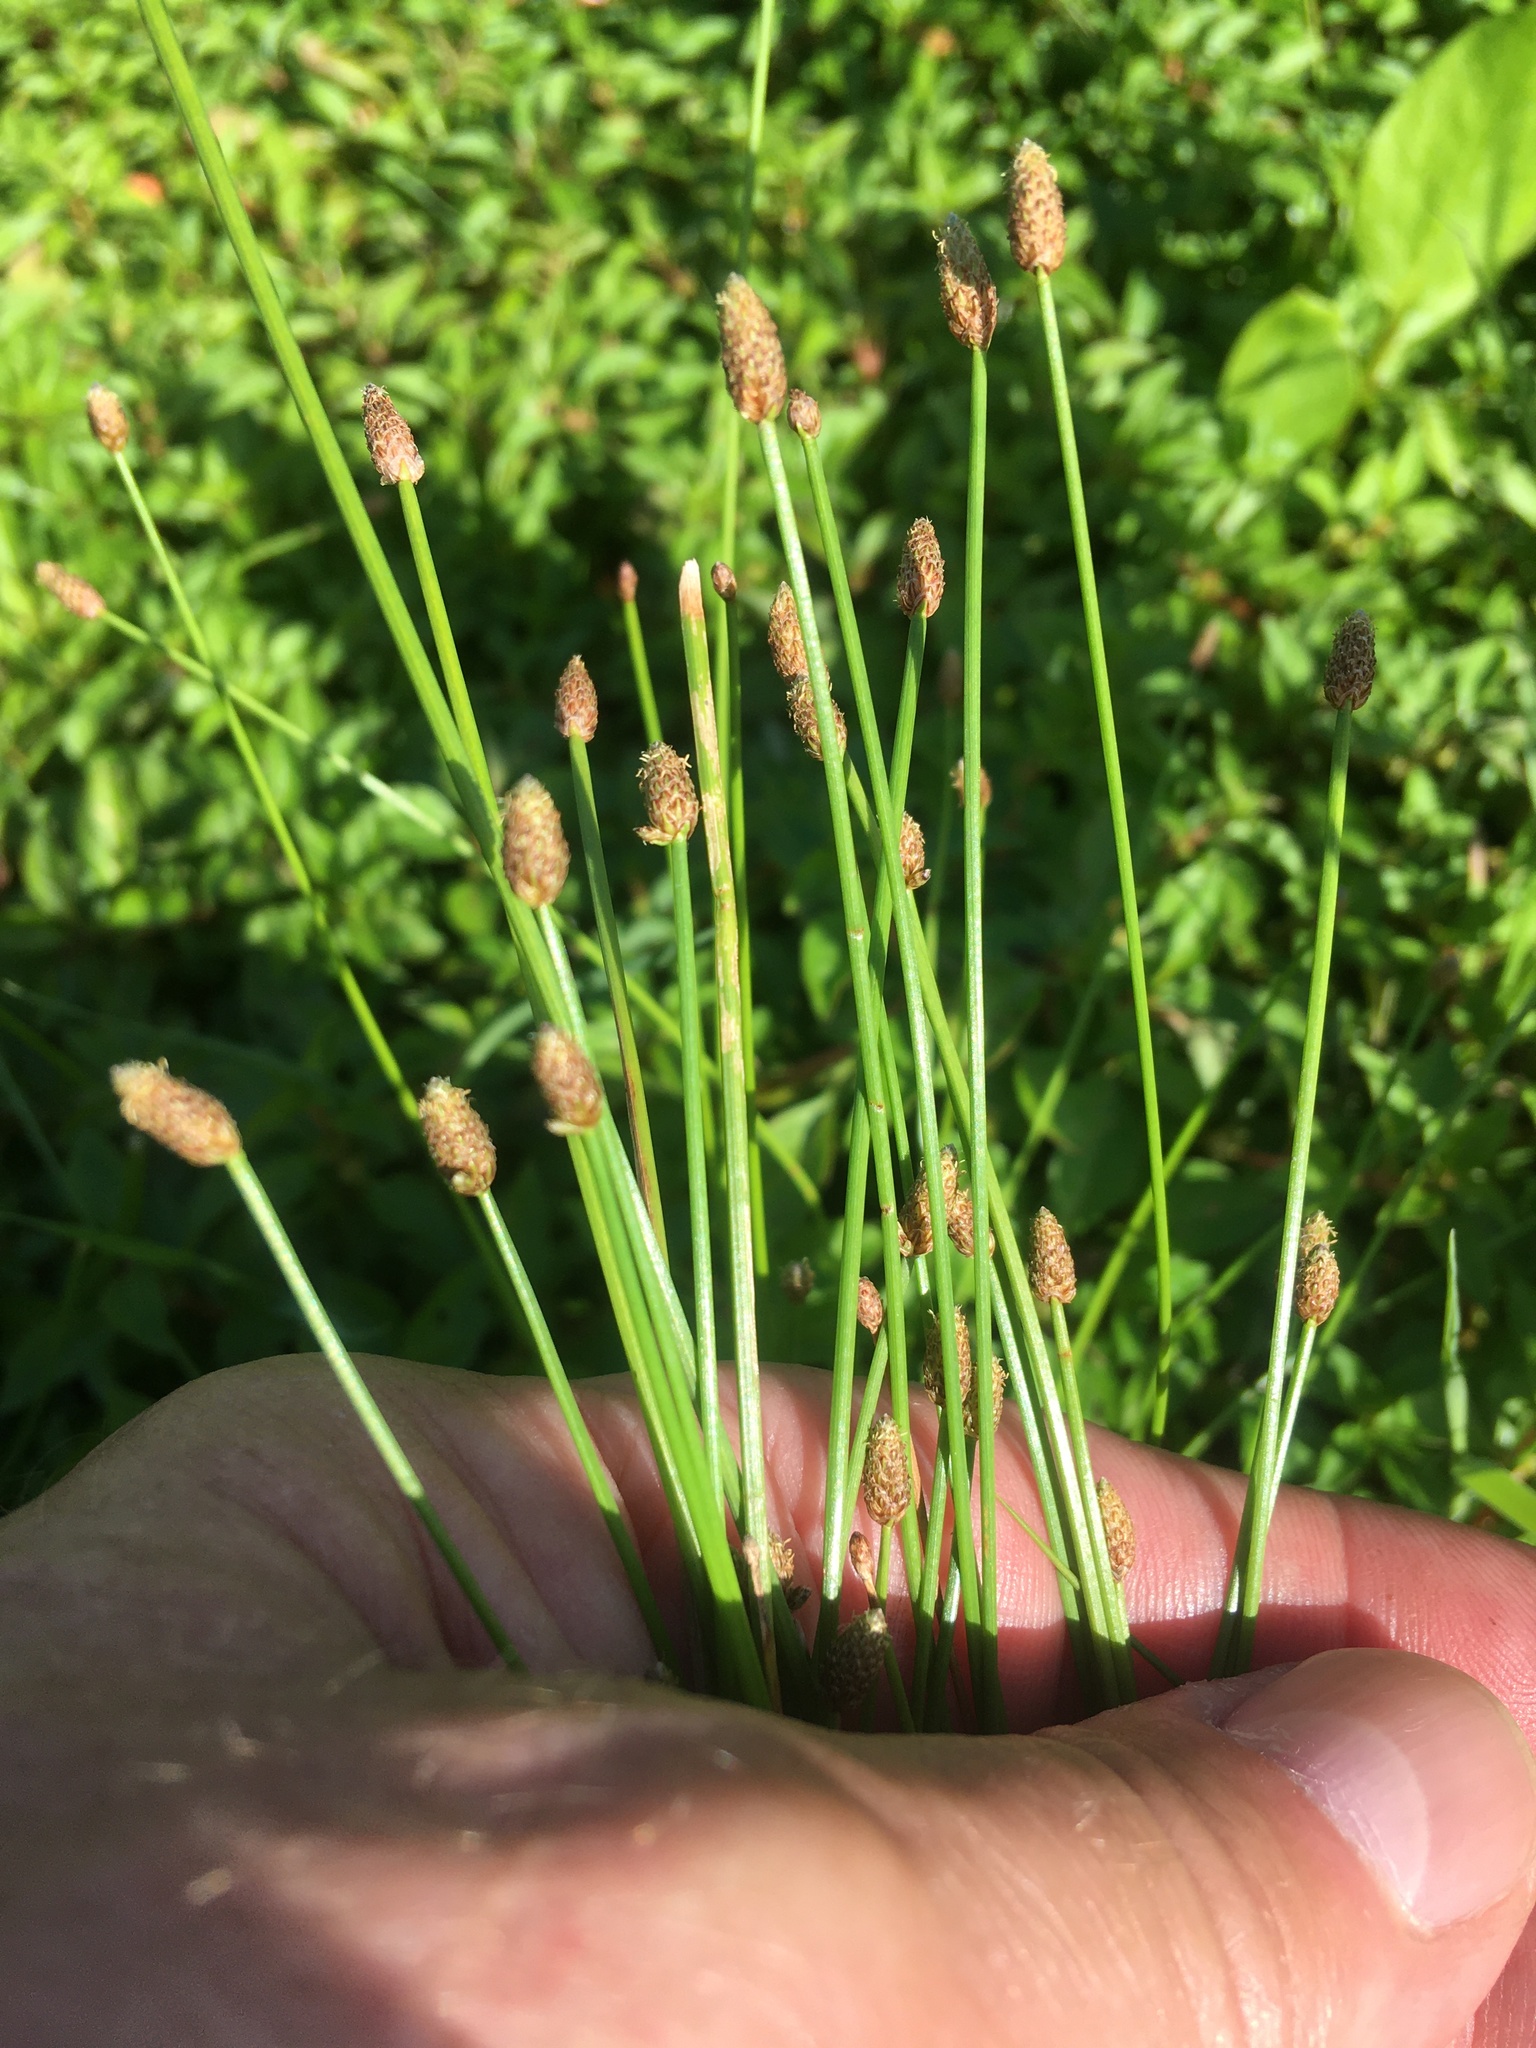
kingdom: Plantae
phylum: Tracheophyta
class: Liliopsida
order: Poales
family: Cyperaceae
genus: Eleocharis
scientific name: Eleocharis obtusa
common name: Blunt spikerush
